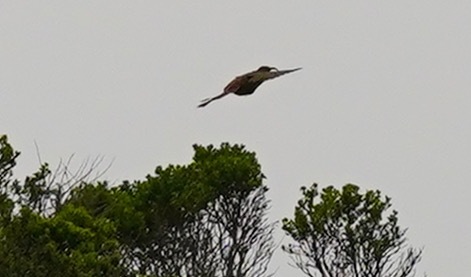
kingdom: Animalia
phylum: Chordata
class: Aves
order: Passeriformes
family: Mimidae
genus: Toxostoma
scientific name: Toxostoma redivivum
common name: California thrasher
